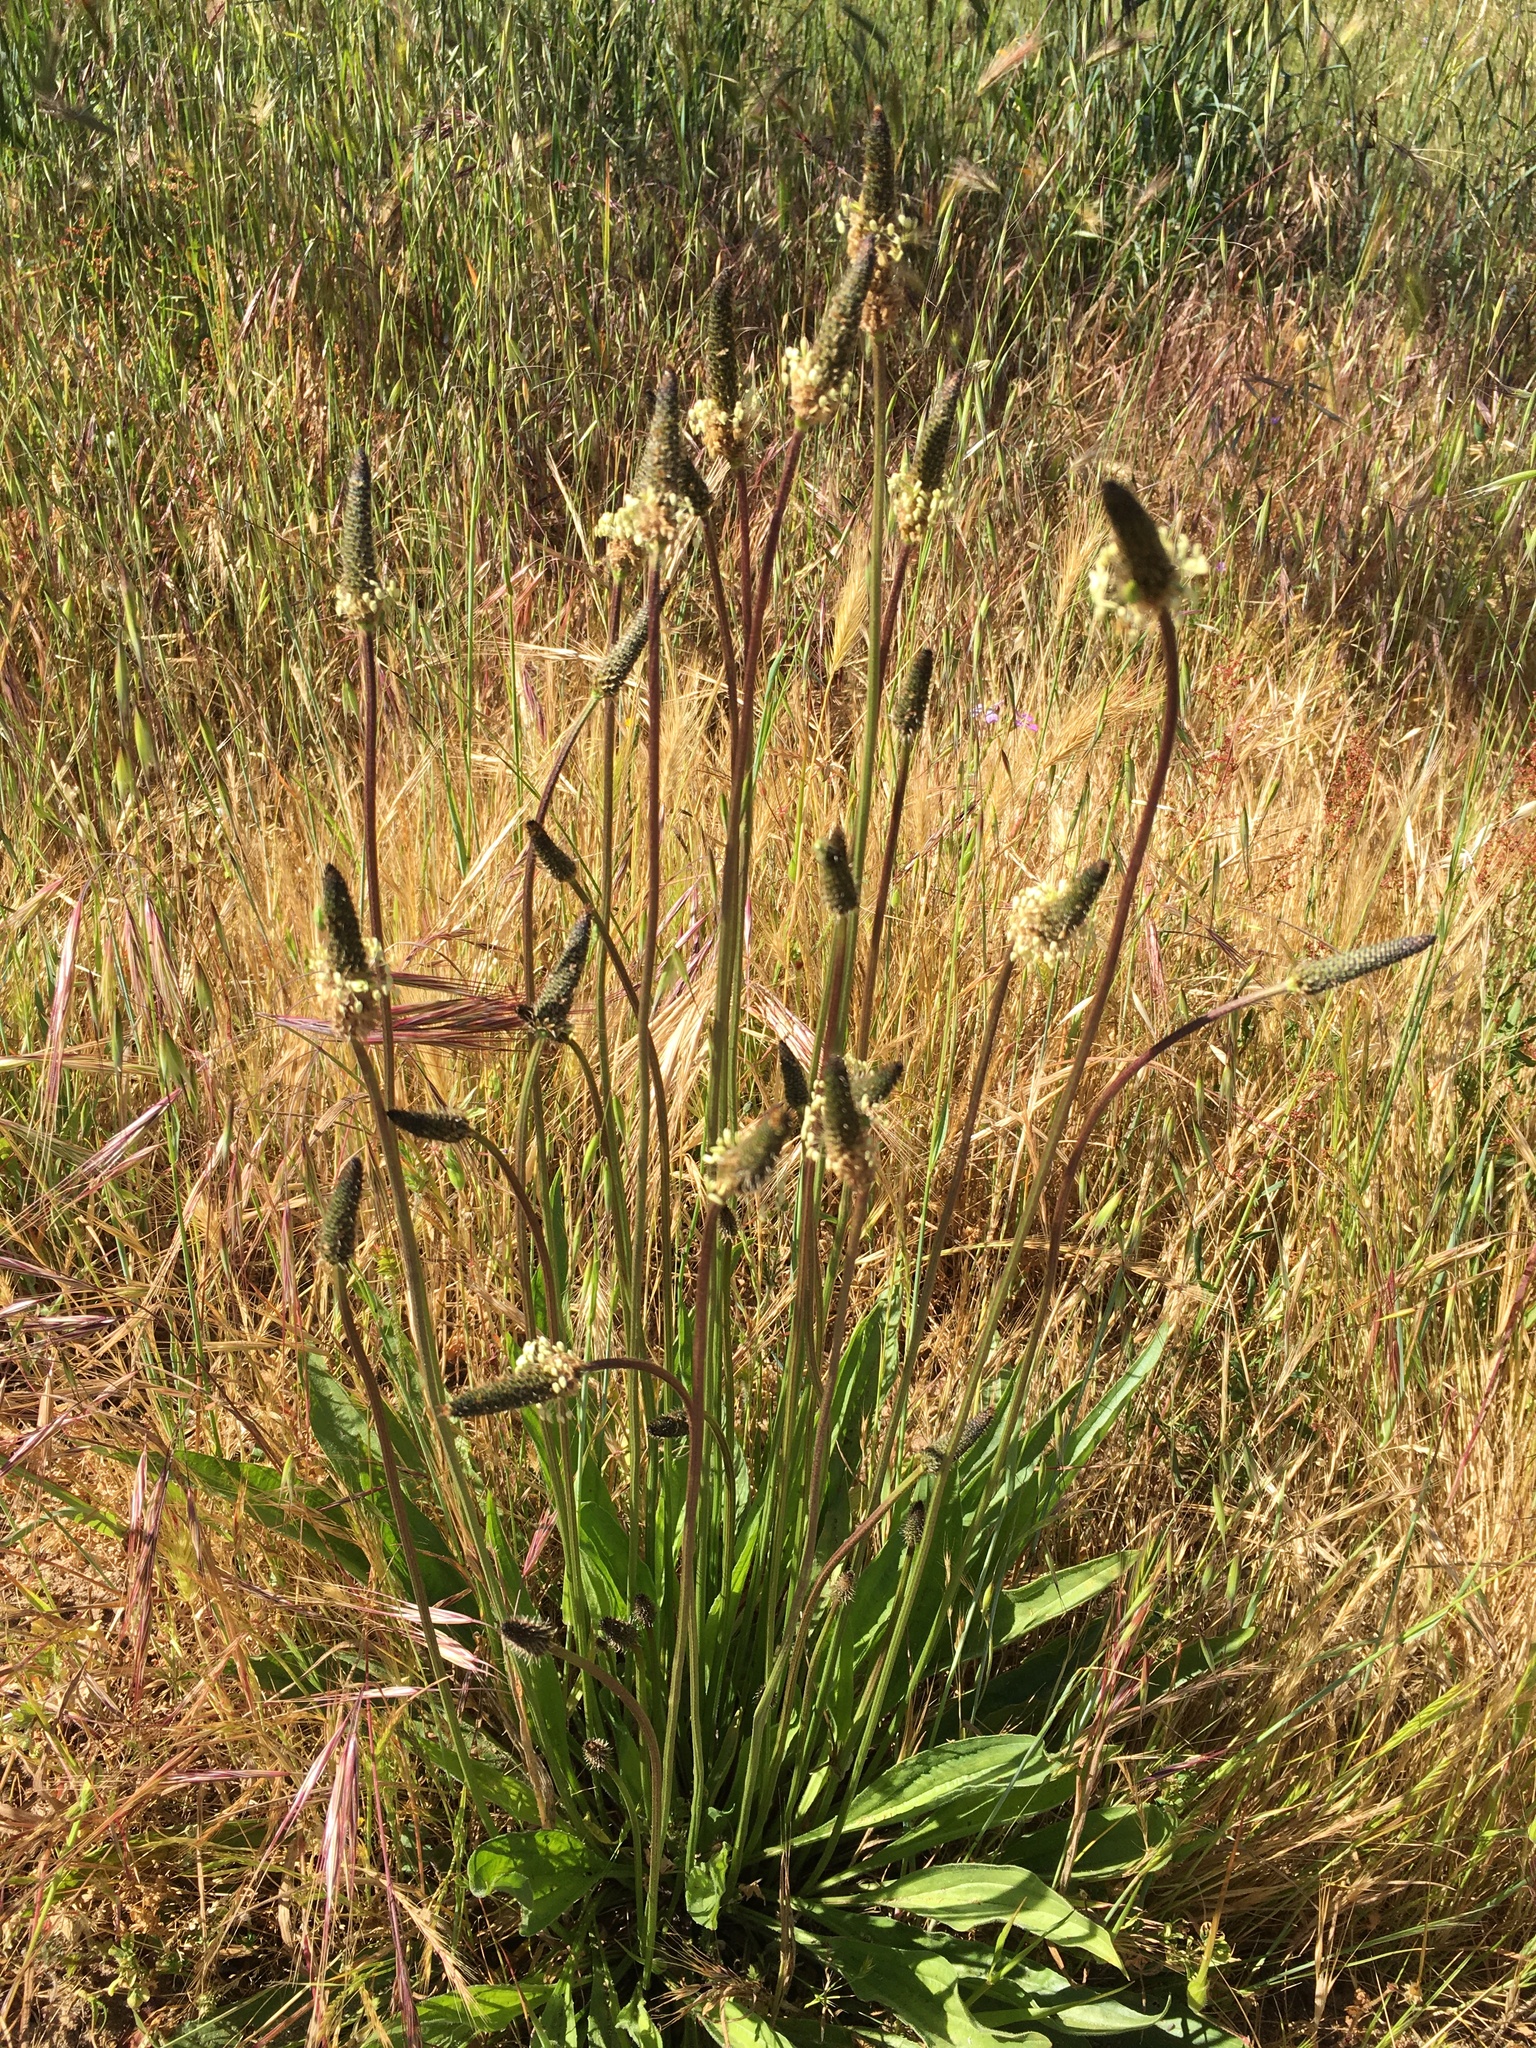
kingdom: Plantae
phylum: Tracheophyta
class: Magnoliopsida
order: Lamiales
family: Plantaginaceae
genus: Plantago
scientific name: Plantago lanceolata
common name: Ribwort plantain
